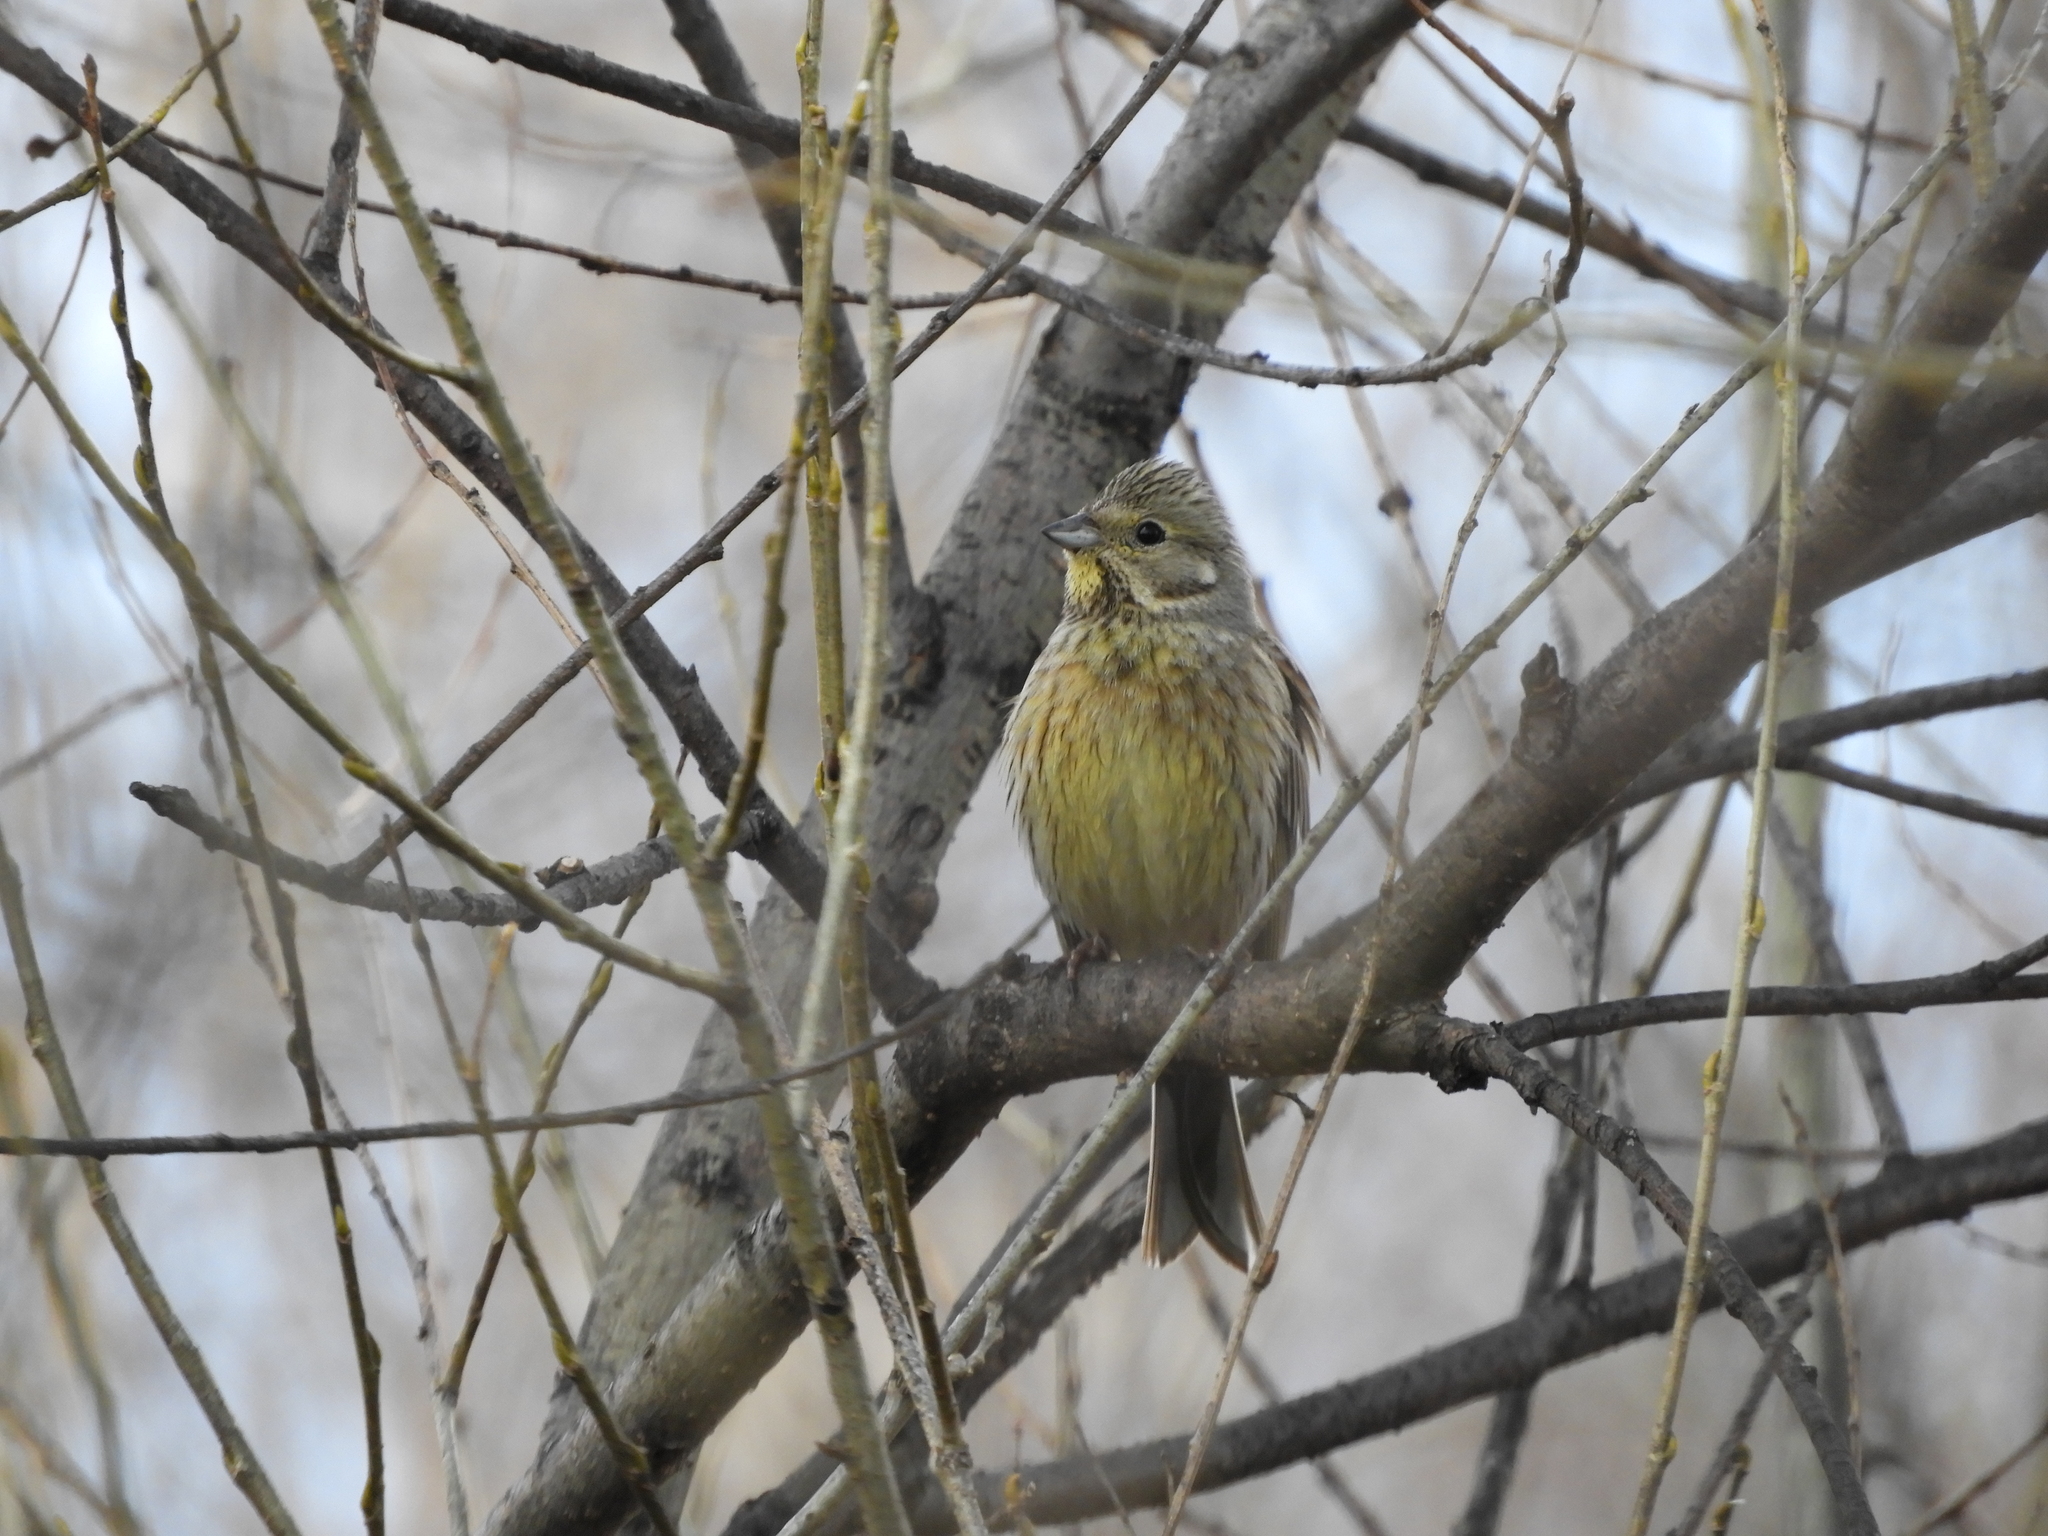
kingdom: Animalia
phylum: Chordata
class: Aves
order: Passeriformes
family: Emberizidae
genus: Emberiza
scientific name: Emberiza citrinella
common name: Yellowhammer
